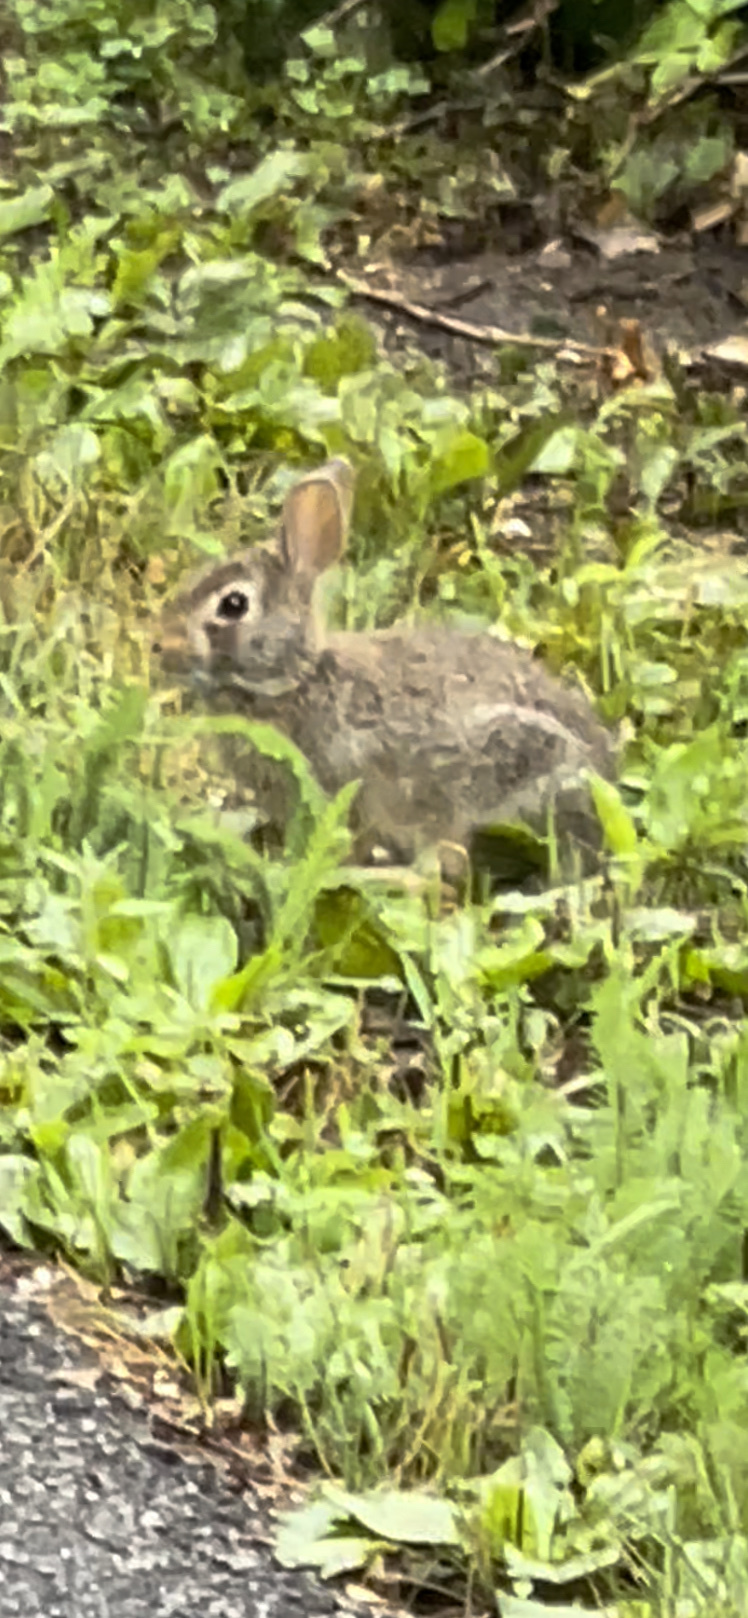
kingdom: Animalia
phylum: Chordata
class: Mammalia
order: Lagomorpha
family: Leporidae
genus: Sylvilagus
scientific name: Sylvilagus floridanus
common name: Eastern cottontail
